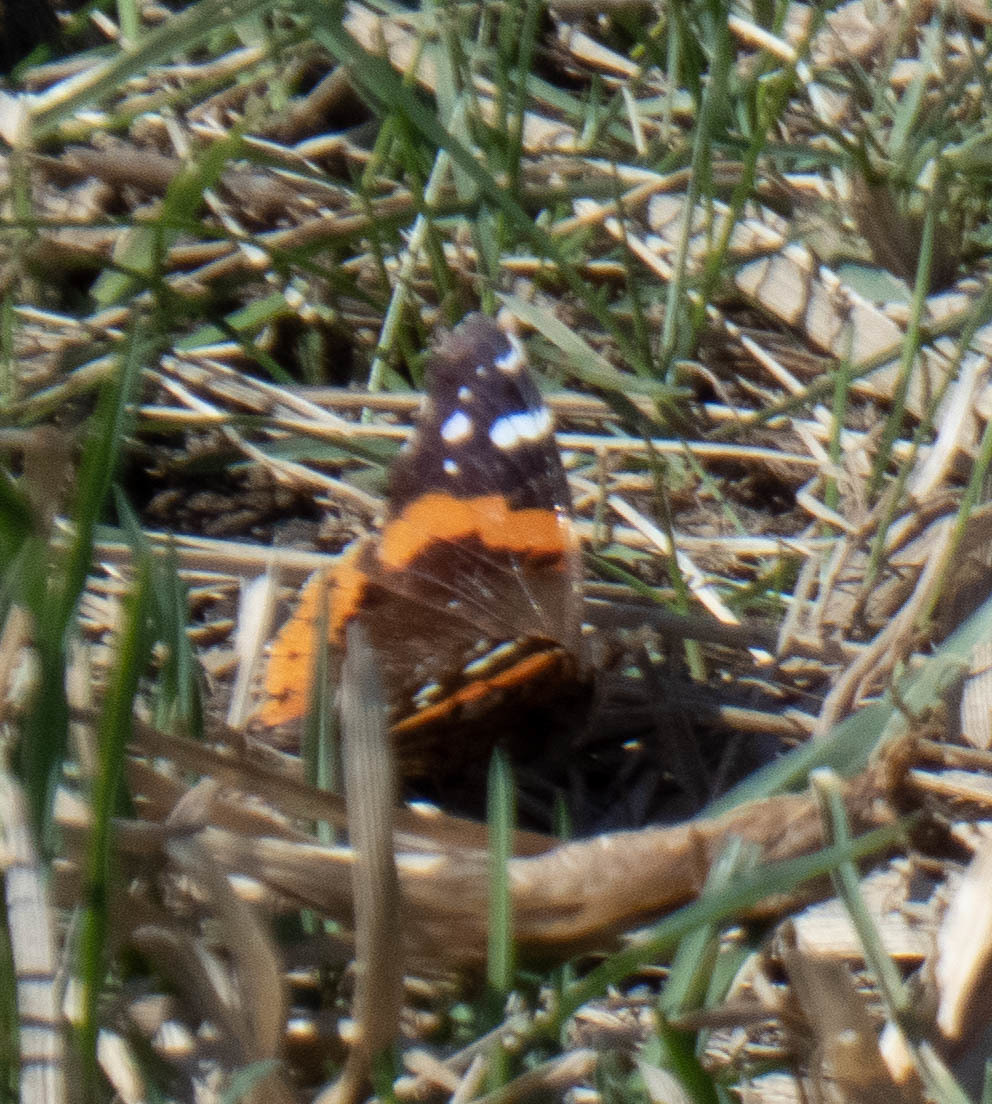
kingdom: Animalia
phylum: Arthropoda
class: Insecta
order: Lepidoptera
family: Nymphalidae
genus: Vanessa
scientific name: Vanessa atalanta
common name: Red admiral
